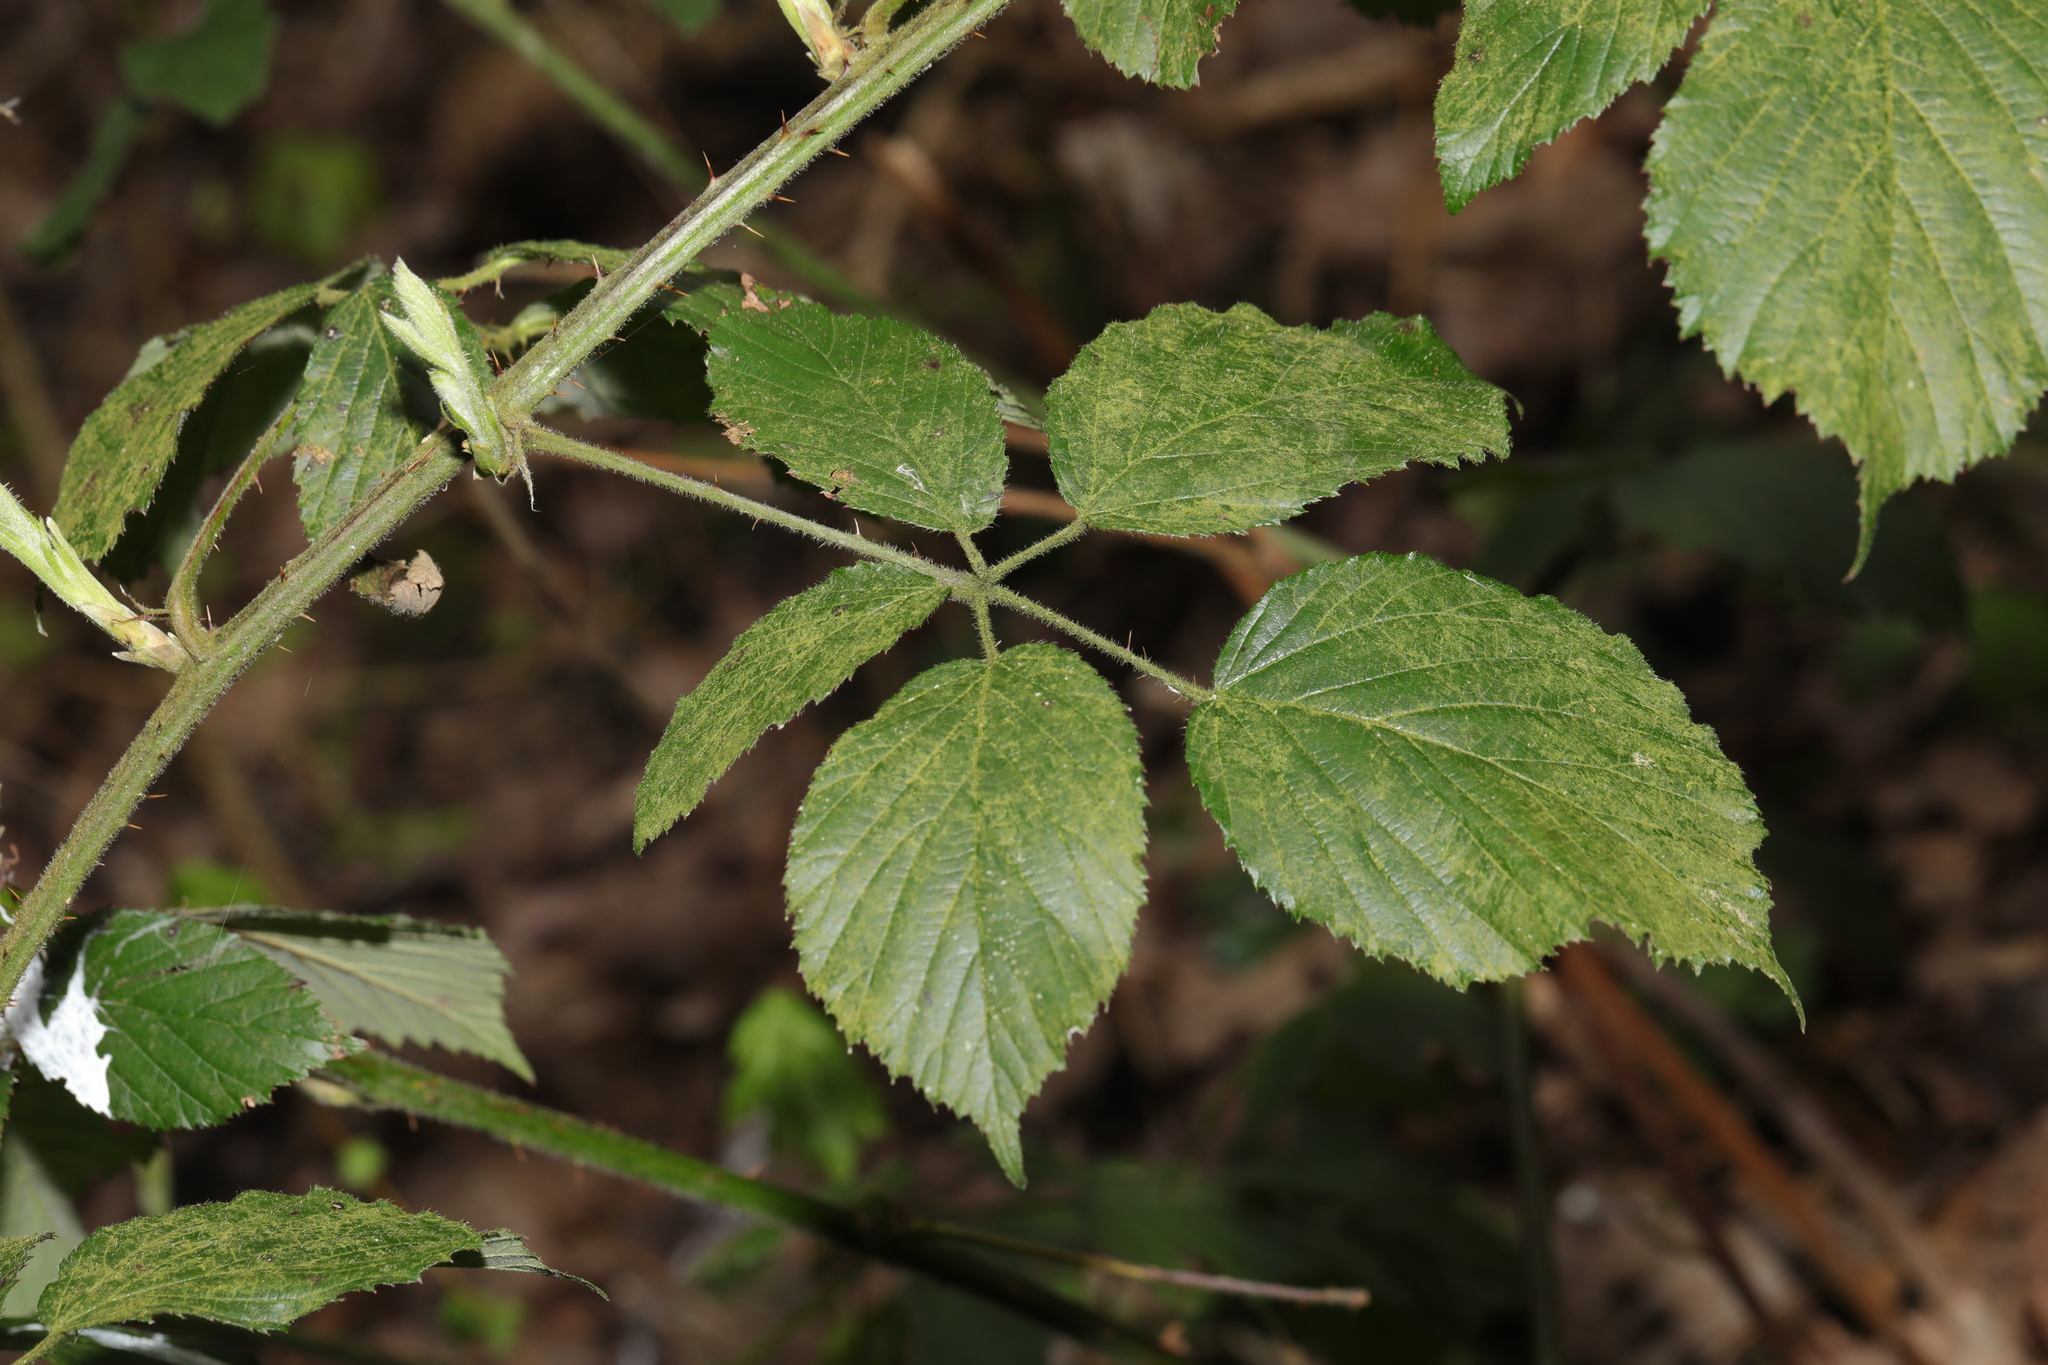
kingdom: Plantae
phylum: Tracheophyta
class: Magnoliopsida
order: Rosales
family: Rosaceae
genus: Rubus
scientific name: Rubus criniger
